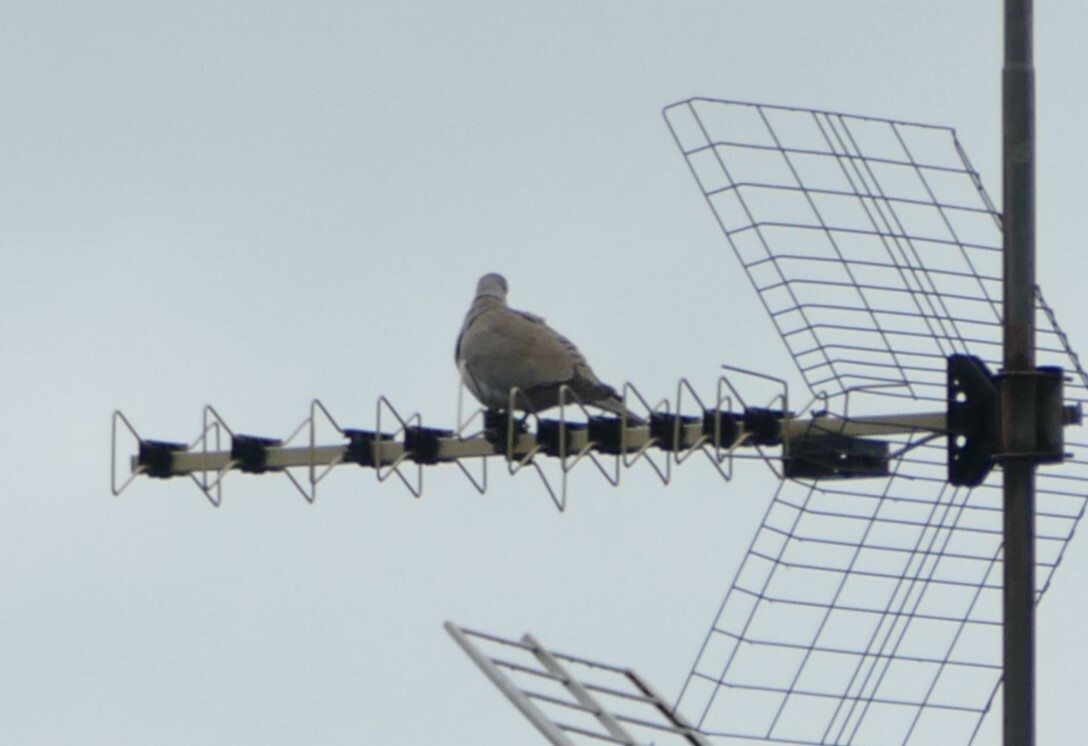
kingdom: Animalia
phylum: Chordata
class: Aves
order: Columbiformes
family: Columbidae
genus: Streptopelia
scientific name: Streptopelia decaocto
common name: Eurasian collared dove
